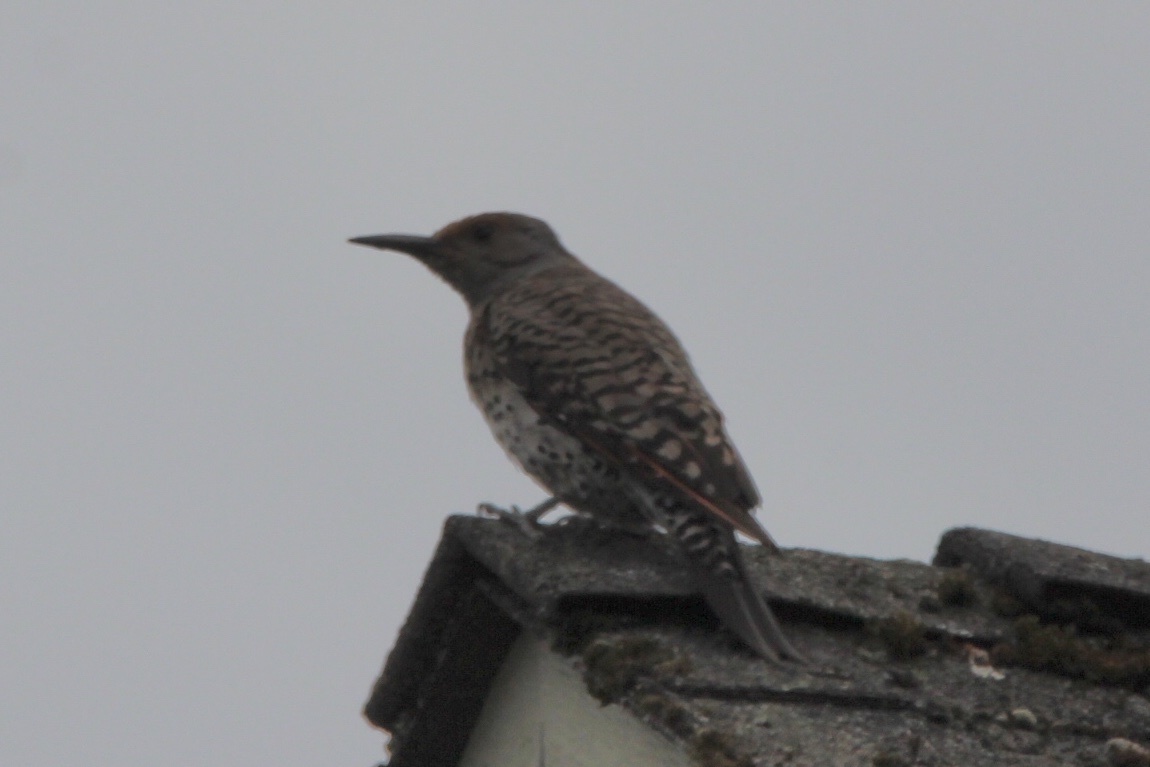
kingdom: Animalia
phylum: Chordata
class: Aves
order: Piciformes
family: Picidae
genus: Colaptes
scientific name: Colaptes auratus
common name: Northern flicker
